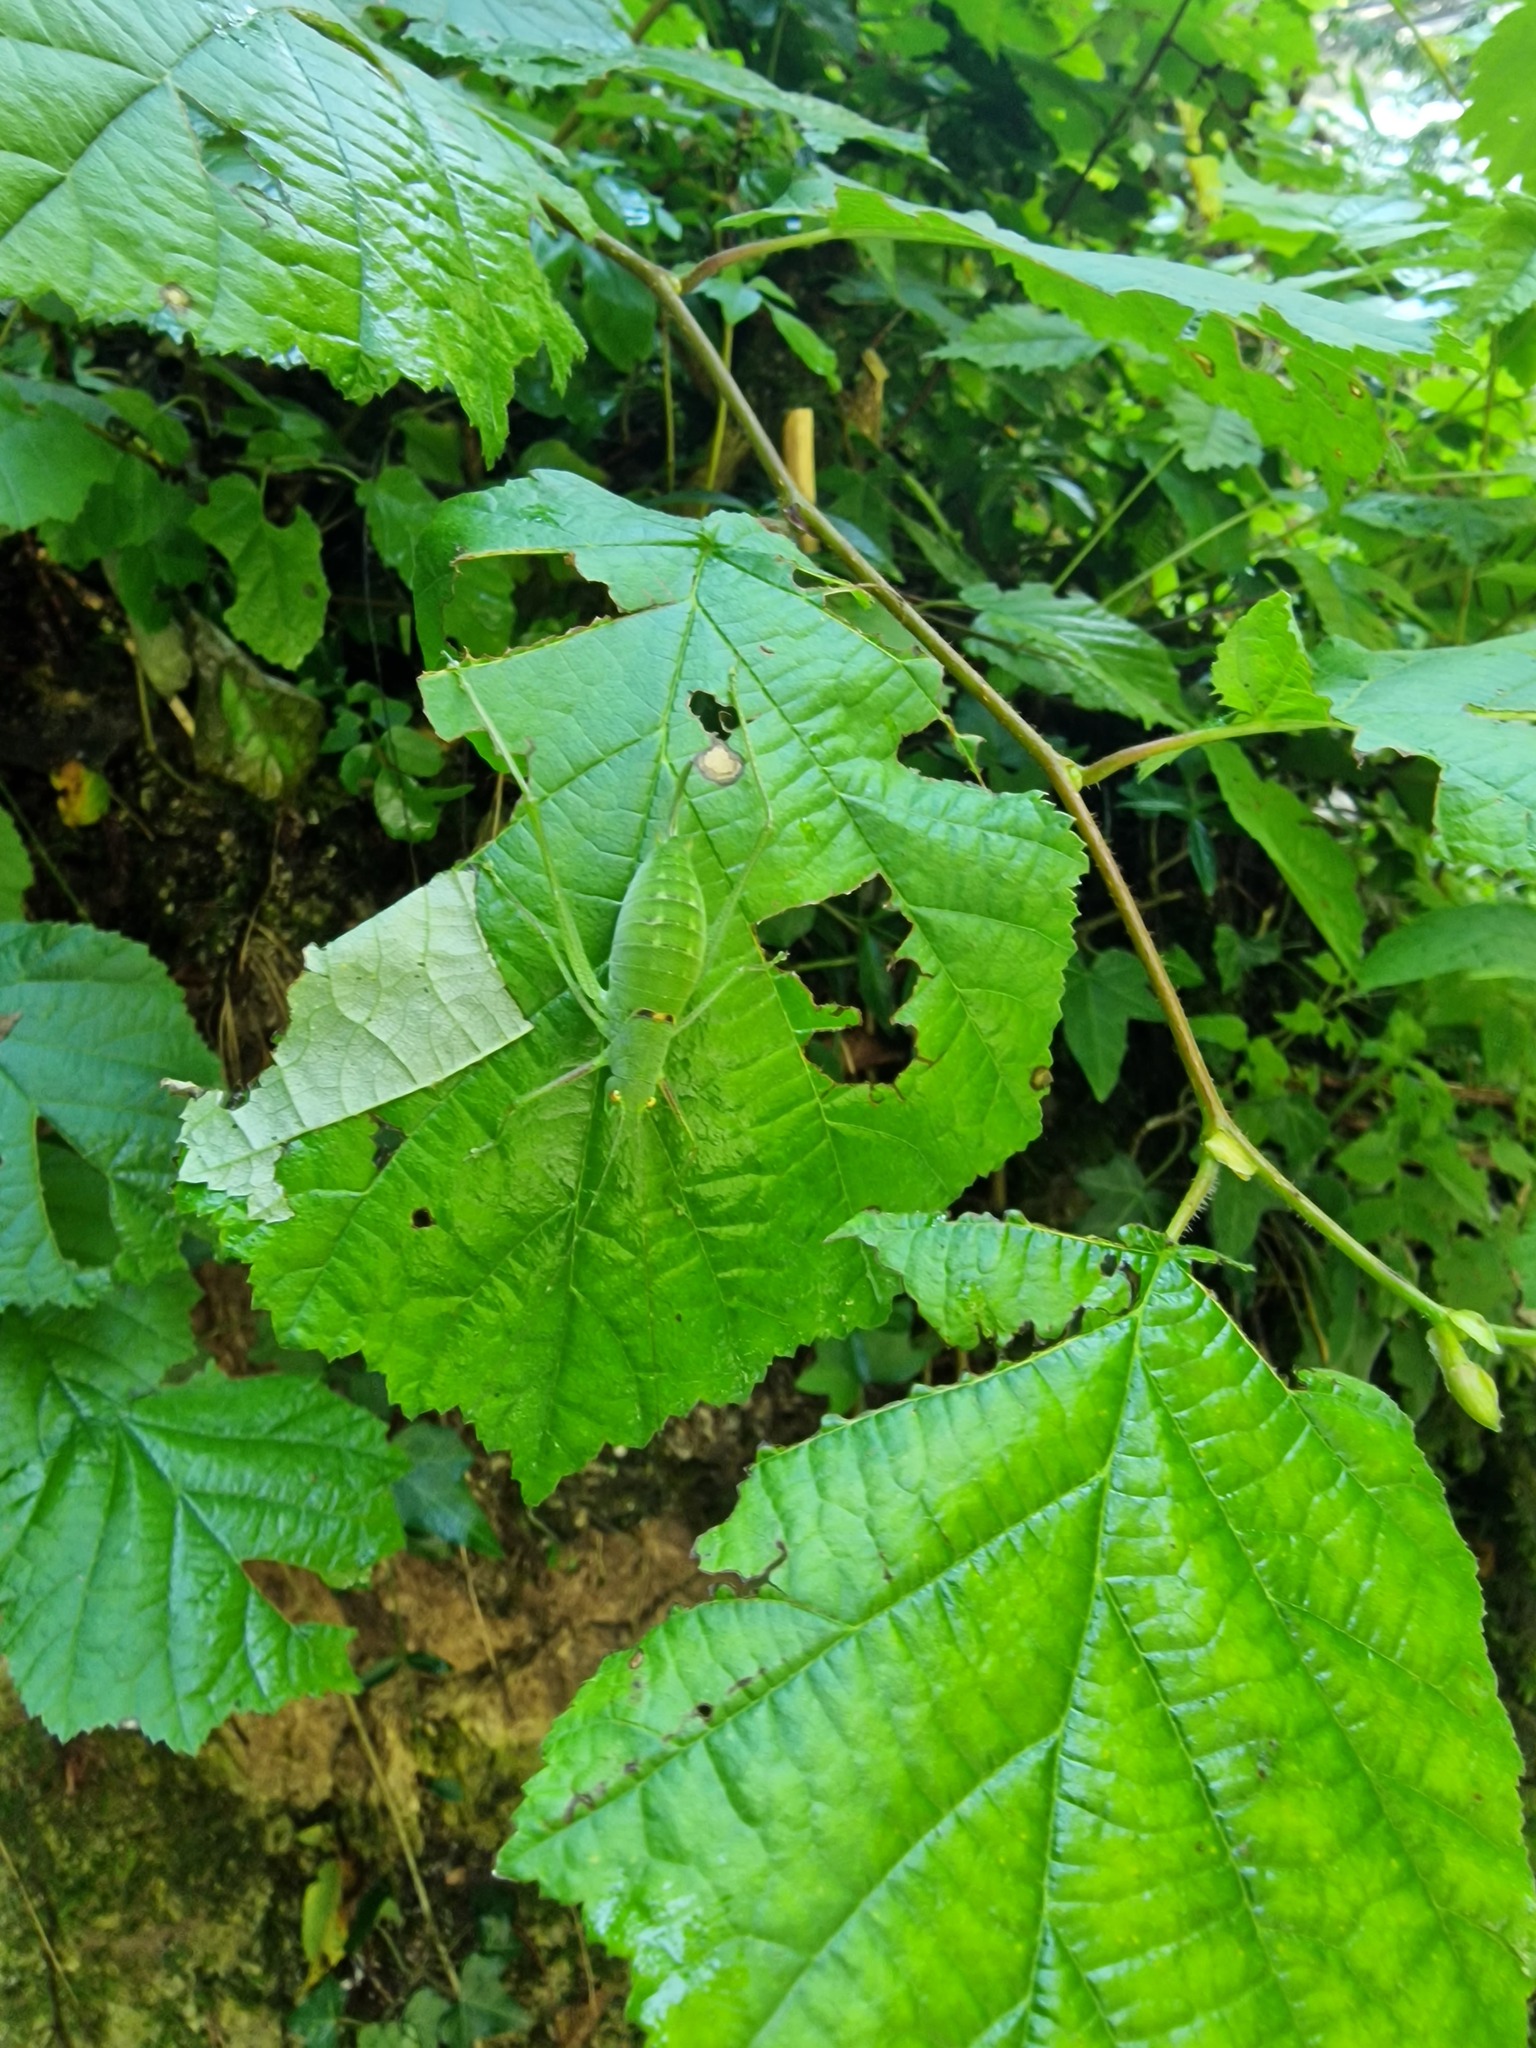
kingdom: Animalia
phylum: Arthropoda
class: Insecta
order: Orthoptera
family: Tettigoniidae
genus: Poecilimon
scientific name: Poecilimon schmidtii
